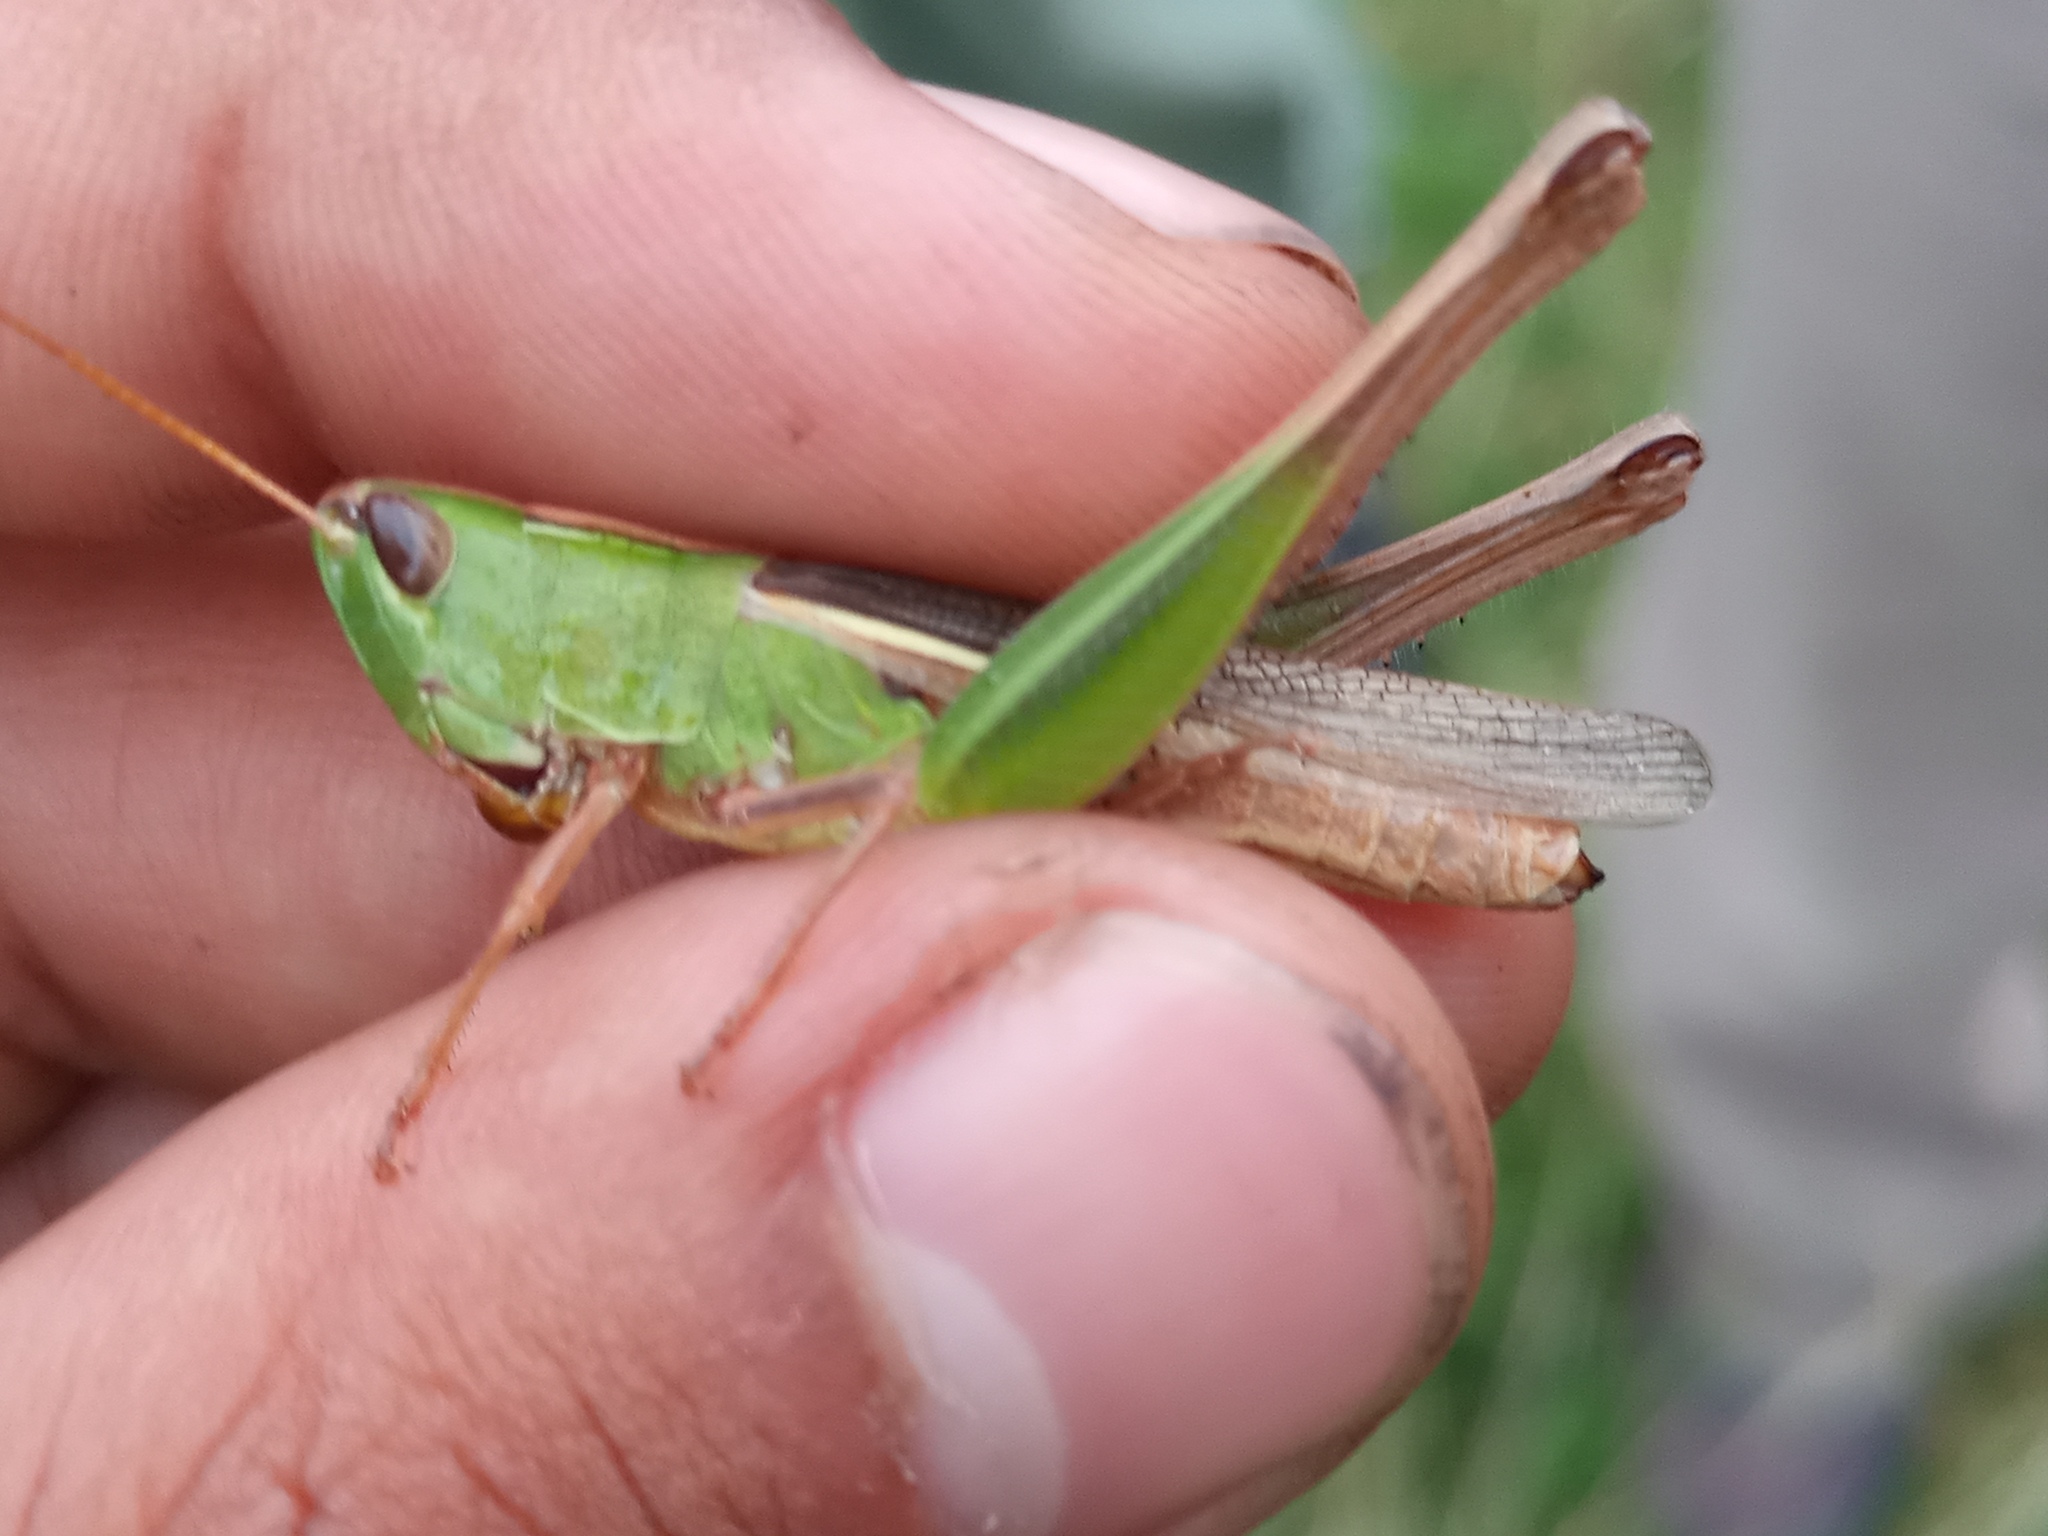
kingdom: Animalia
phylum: Arthropoda
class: Insecta
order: Orthoptera
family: Acrididae
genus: Staurorhectus
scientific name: Staurorhectus longicornis
